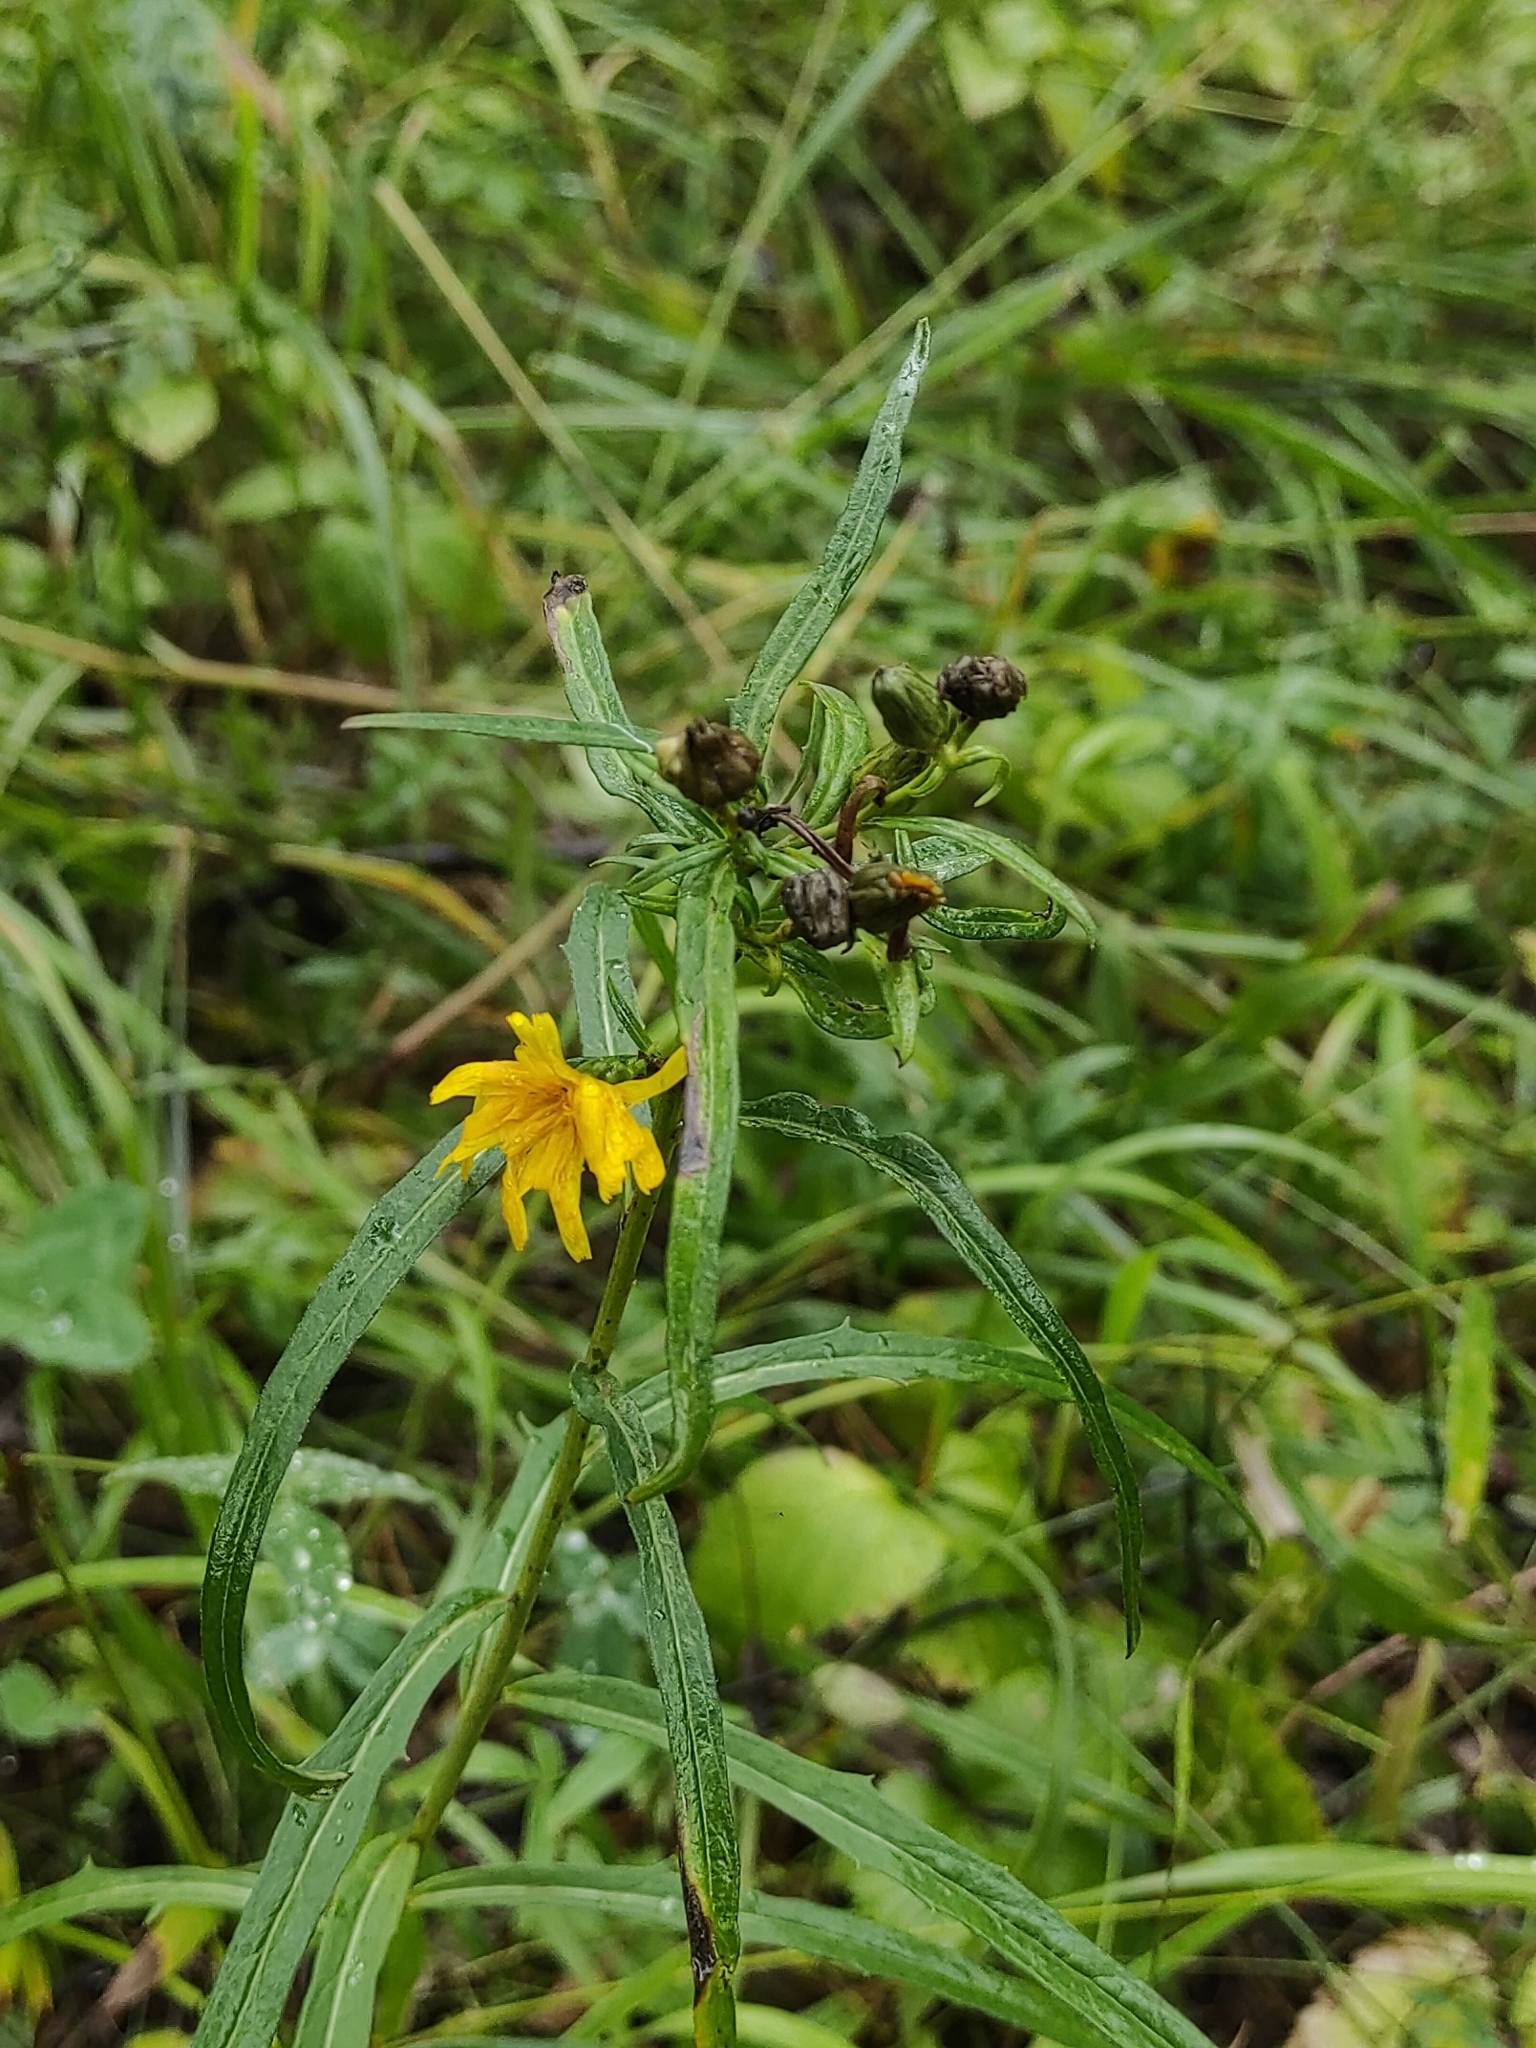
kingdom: Plantae
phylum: Tracheophyta
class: Magnoliopsida
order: Asterales
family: Asteraceae
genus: Hieracium
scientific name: Hieracium umbellatum
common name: Northern hawkweed
